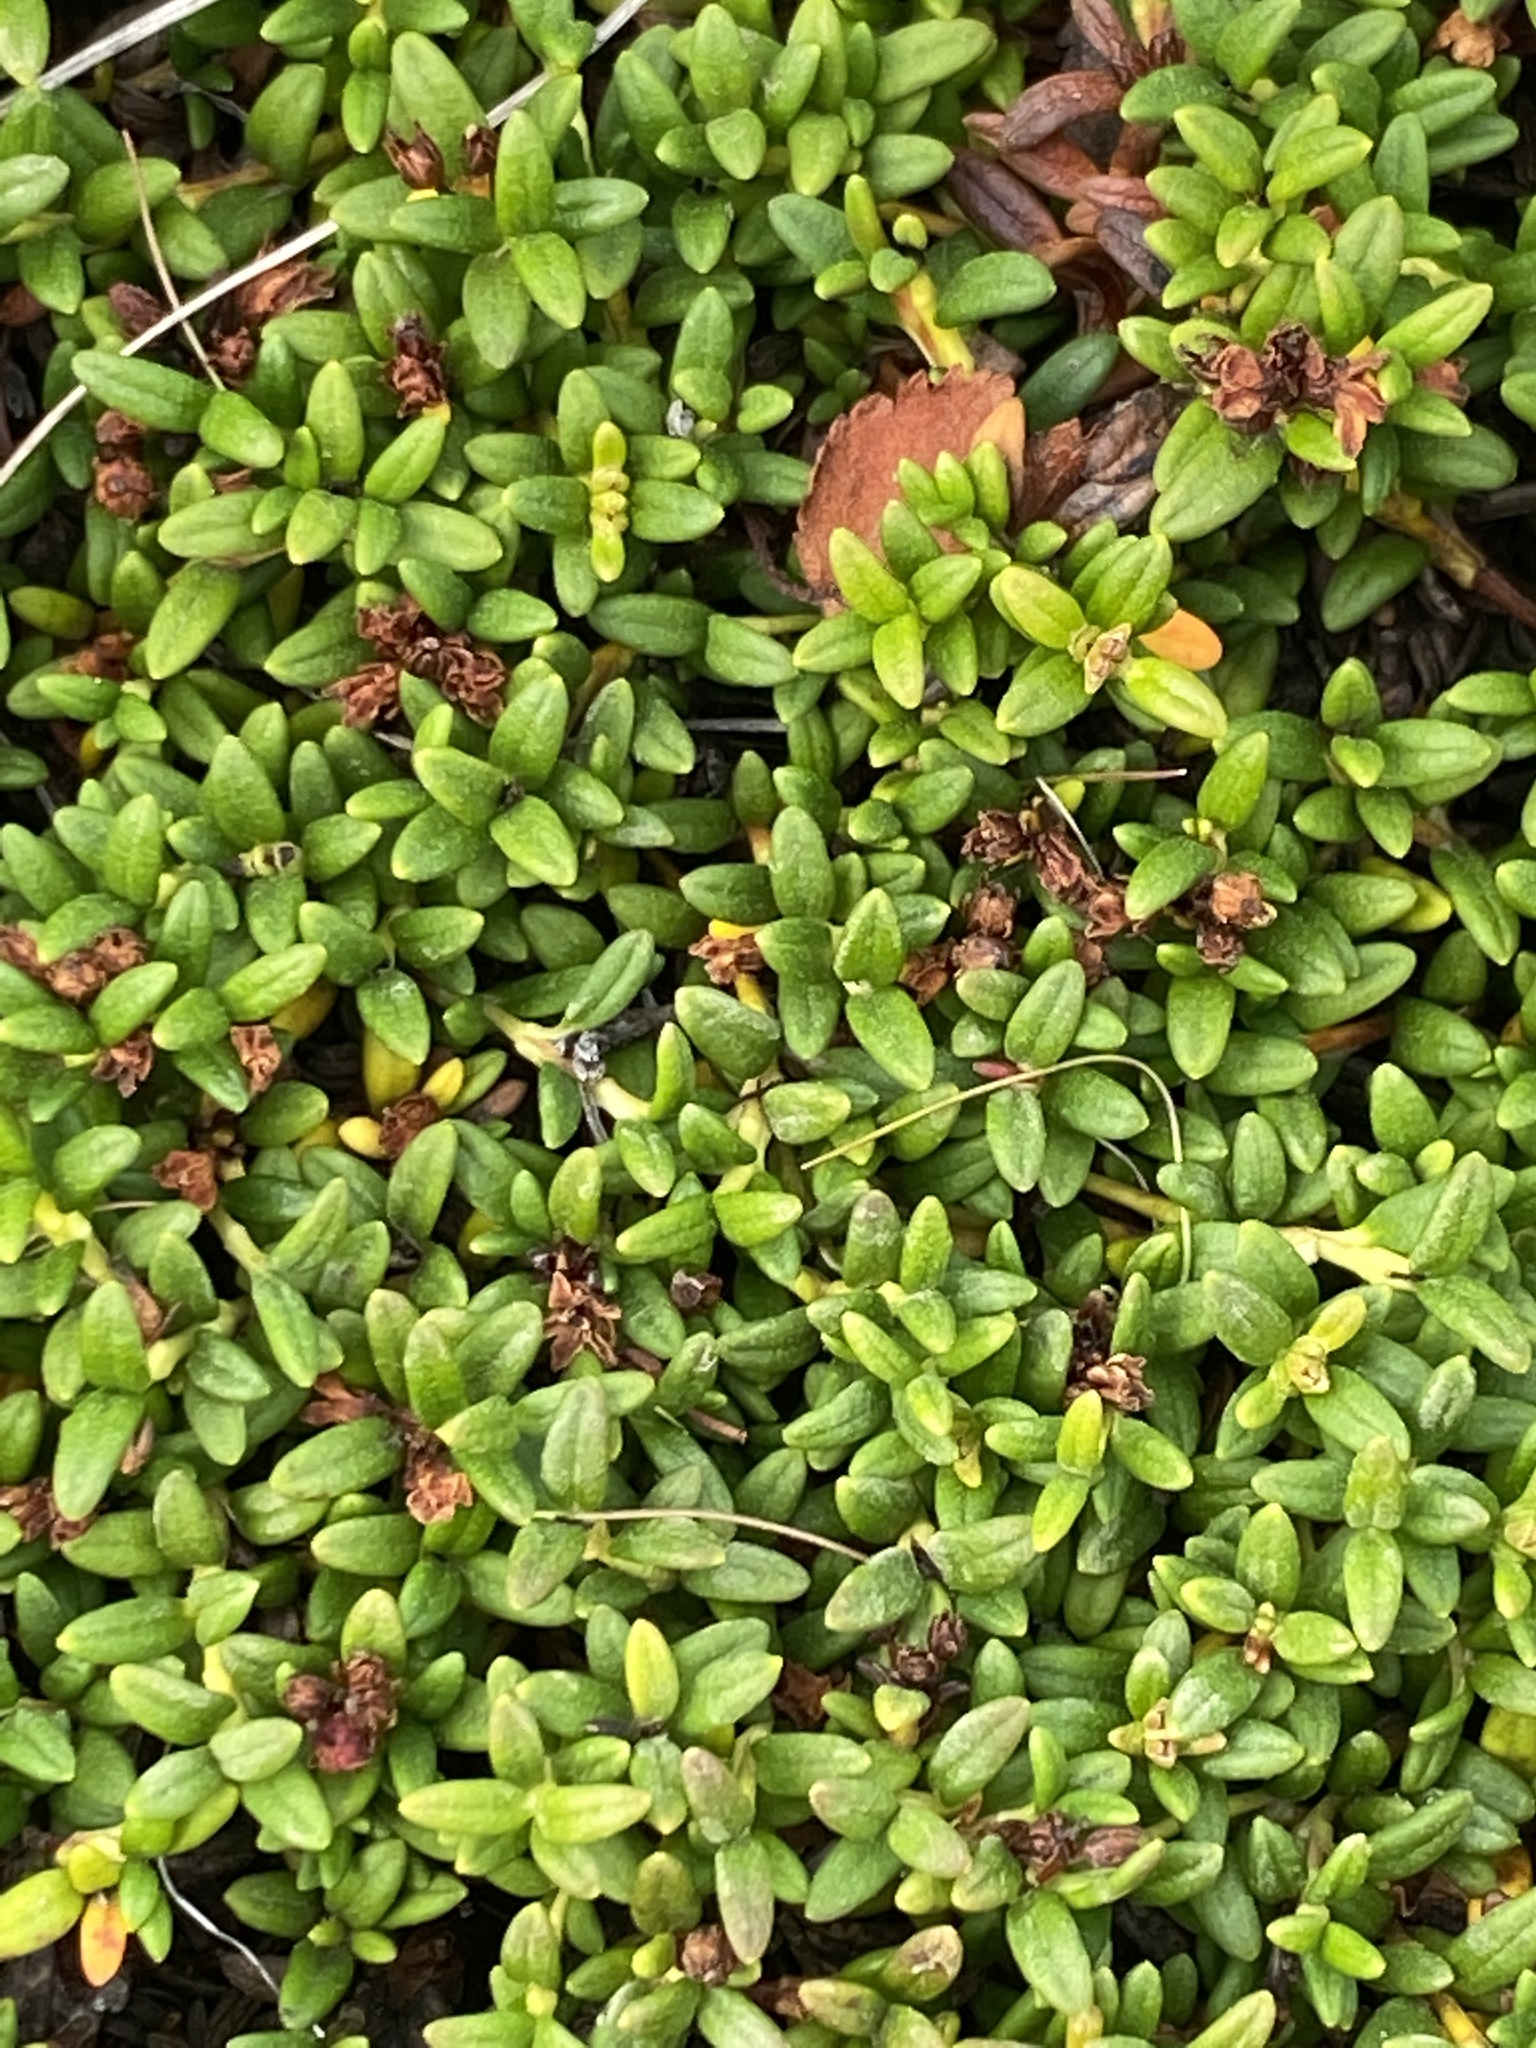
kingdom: Plantae
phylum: Tracheophyta
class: Magnoliopsida
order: Ericales
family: Ericaceae
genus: Kalmia
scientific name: Kalmia procumbens
